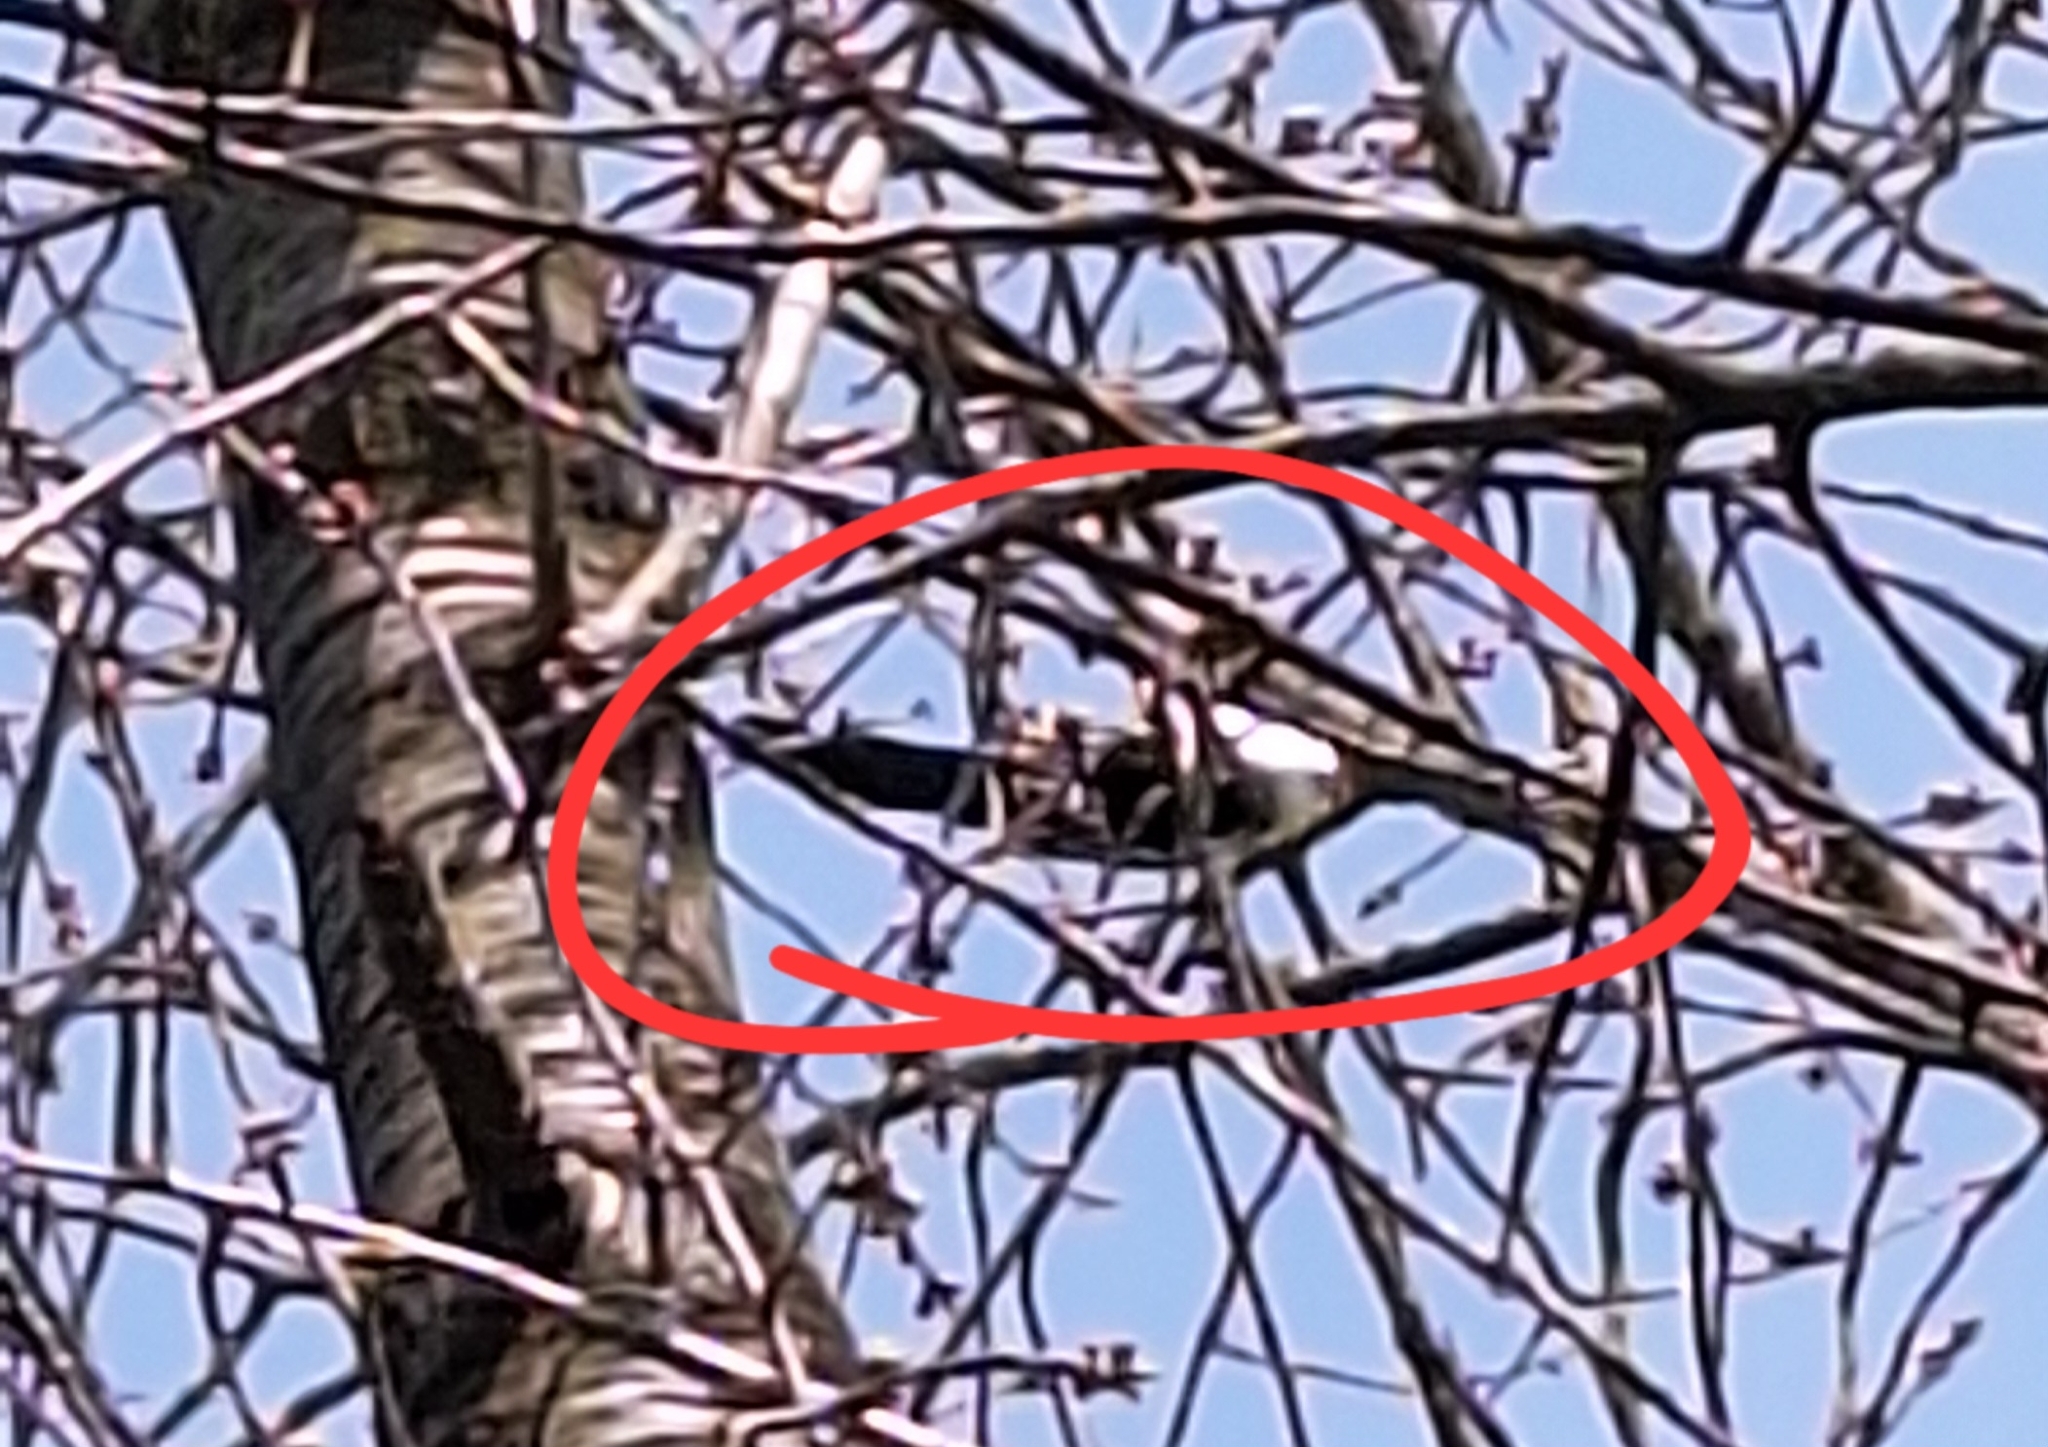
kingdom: Animalia
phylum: Chordata
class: Aves
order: Passeriformes
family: Corvidae
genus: Pica
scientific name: Pica pica
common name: Eurasian magpie
